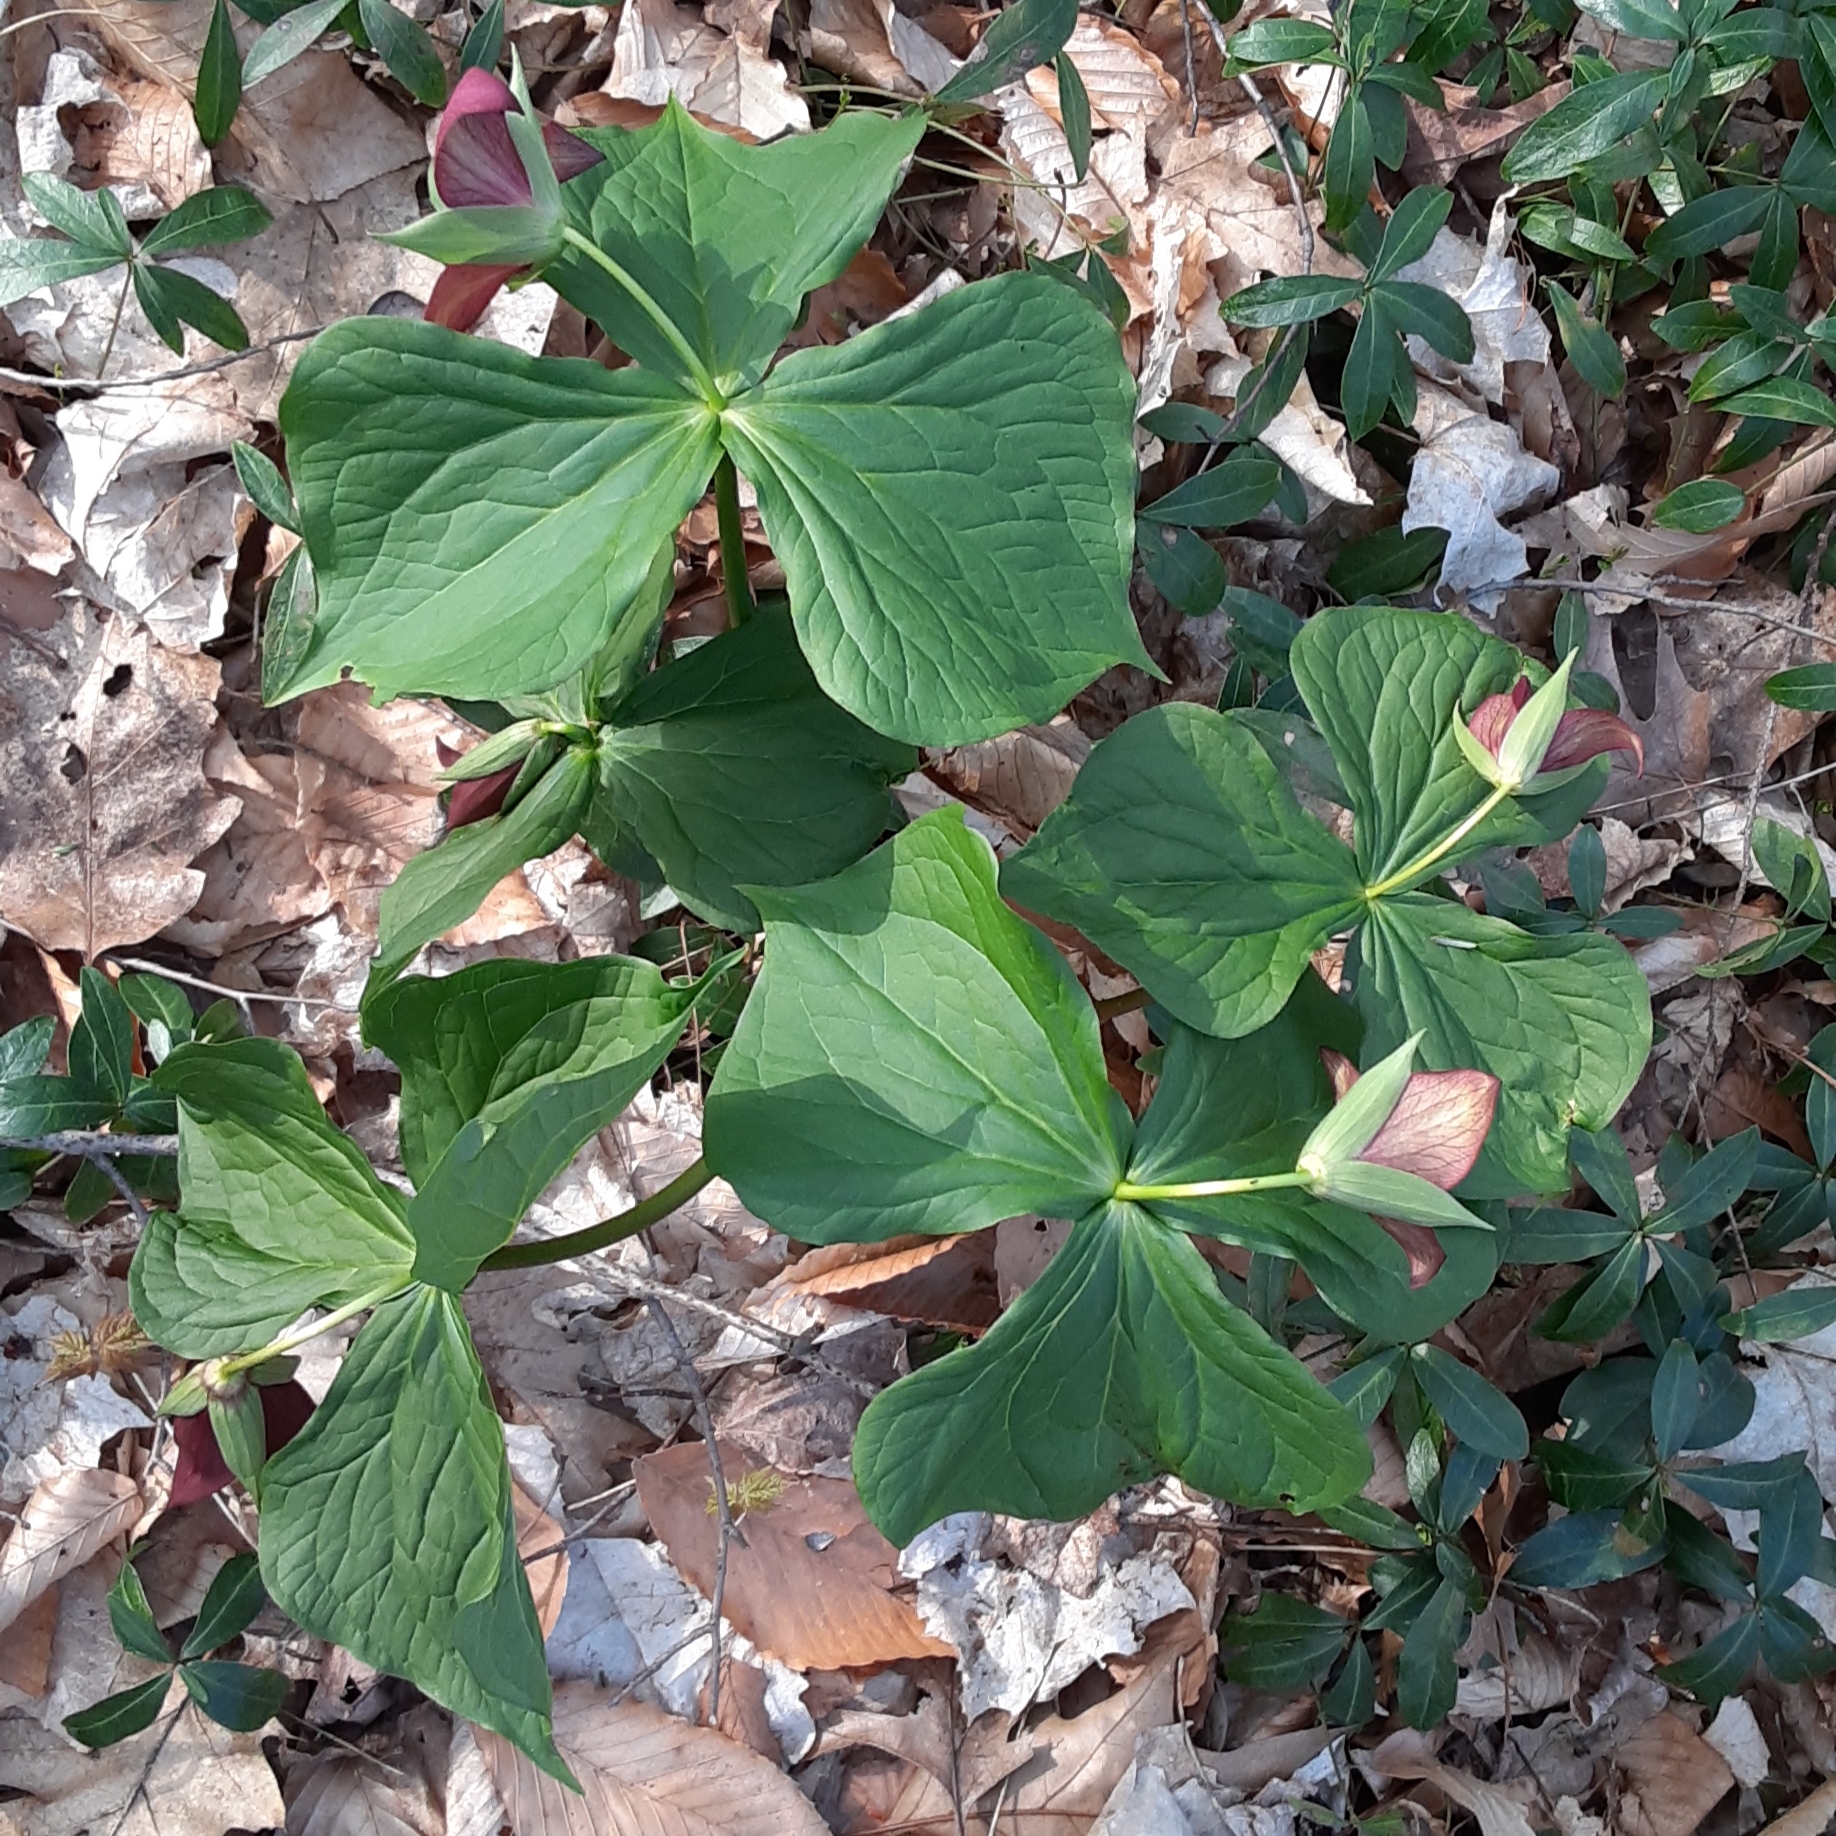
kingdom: Plantae
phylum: Tracheophyta
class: Liliopsida
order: Liliales
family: Melanthiaceae
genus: Trillium
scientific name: Trillium erectum
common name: Purple trillium
